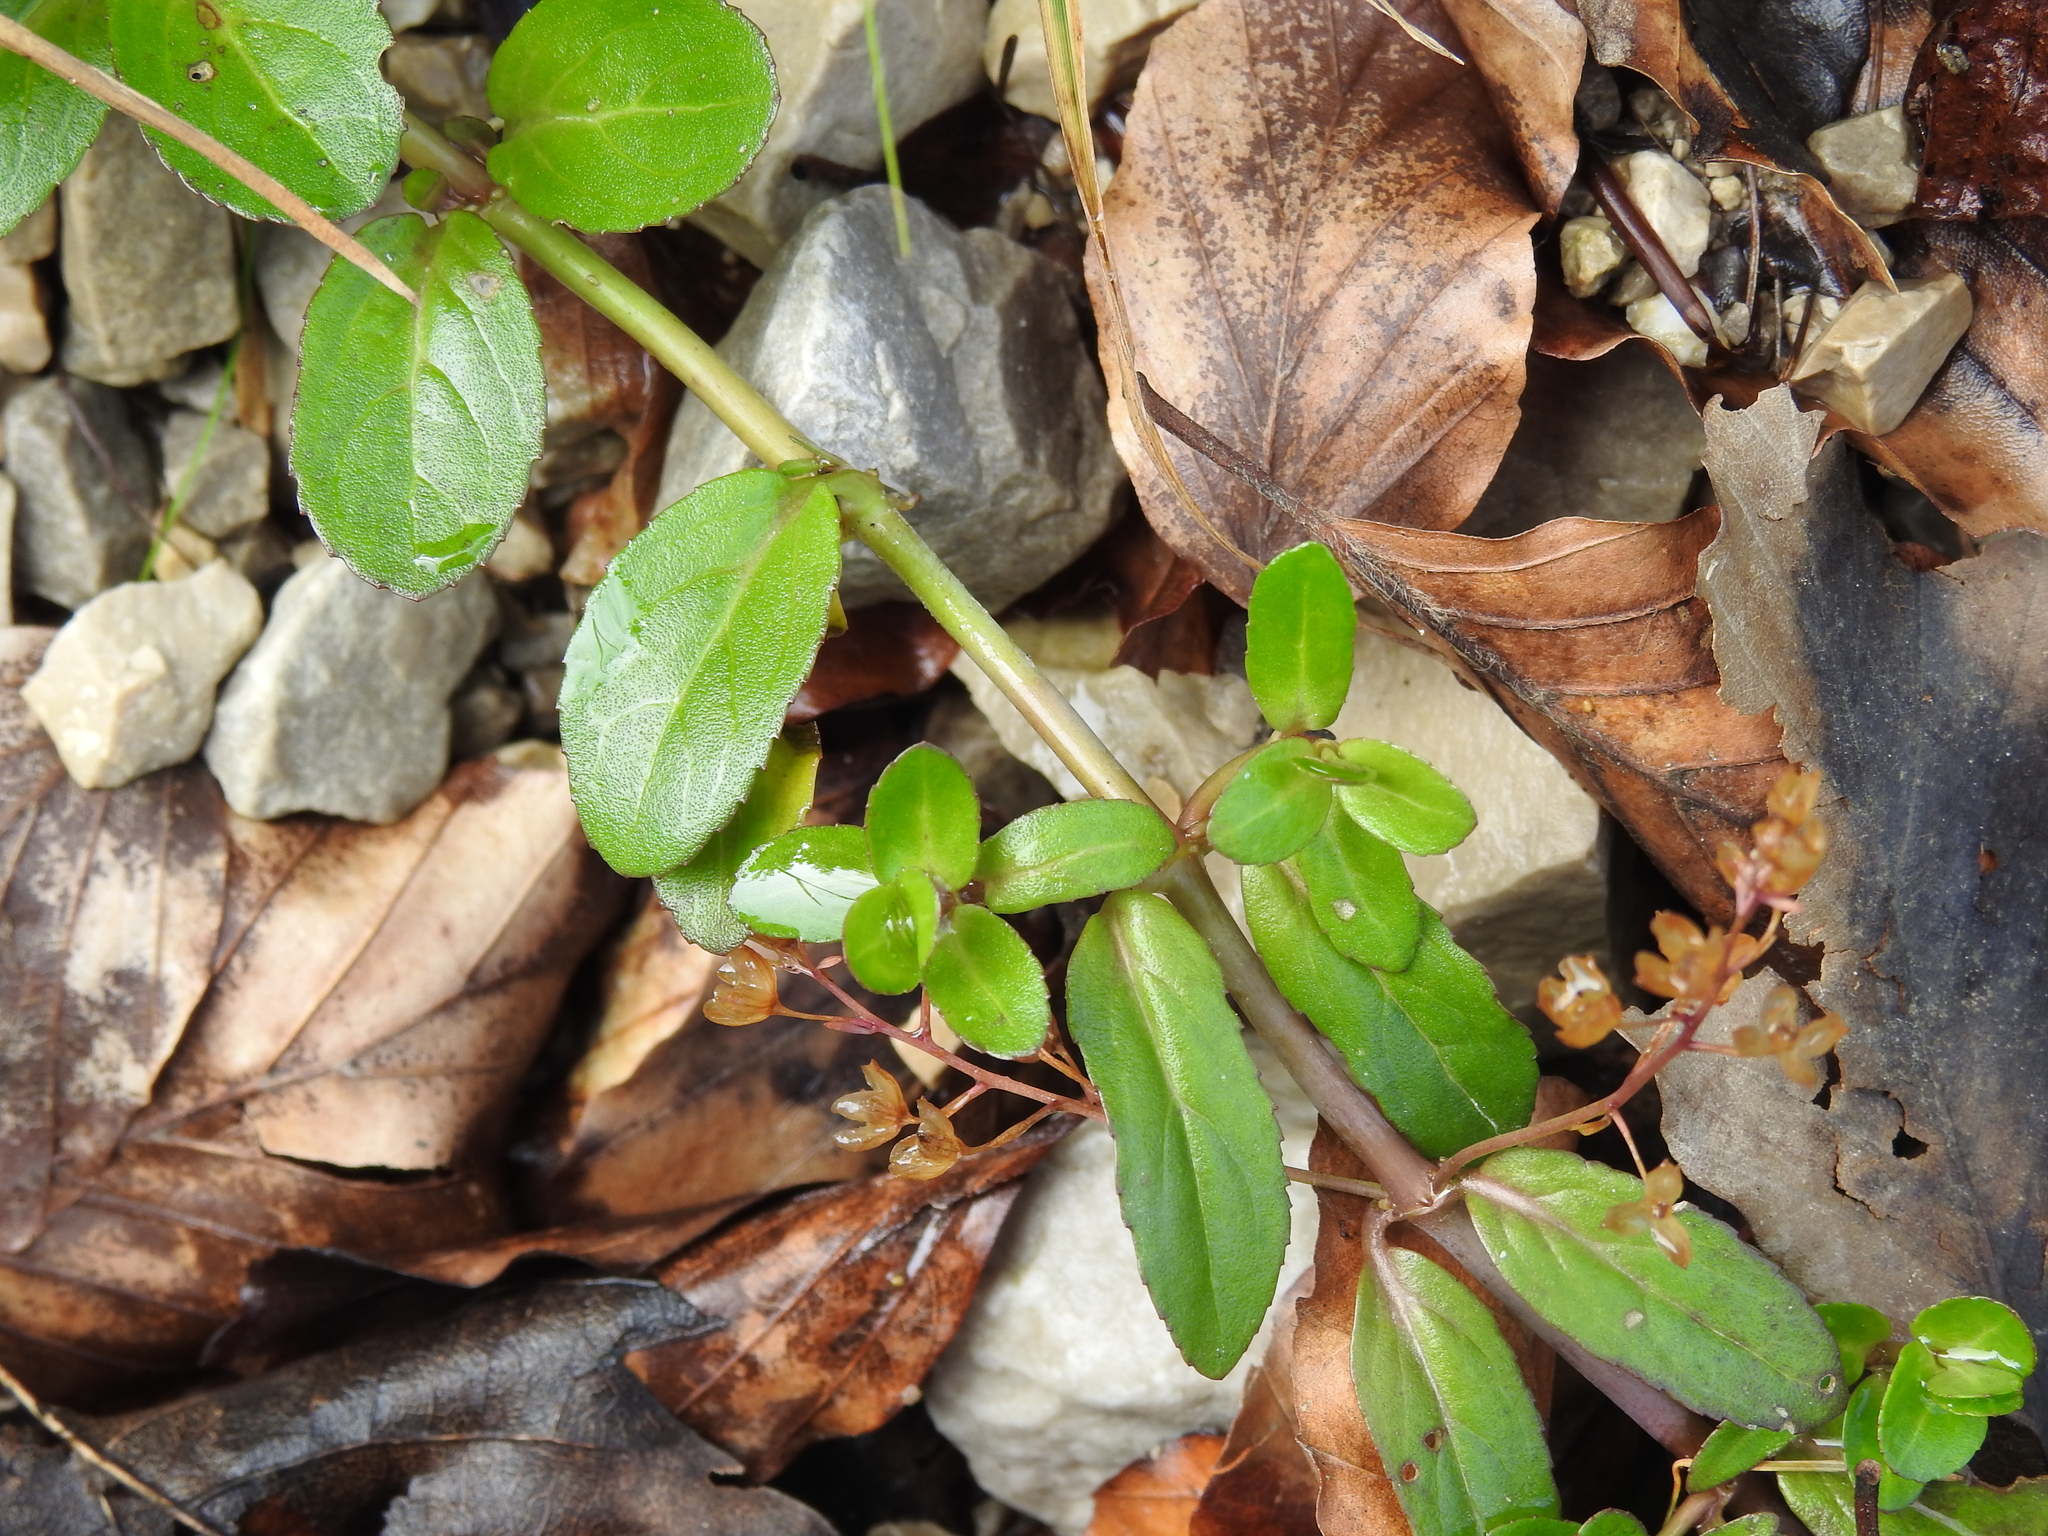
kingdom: Plantae
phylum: Tracheophyta
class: Magnoliopsida
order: Lamiales
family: Plantaginaceae
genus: Veronica
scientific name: Veronica beccabunga
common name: Brooklime
